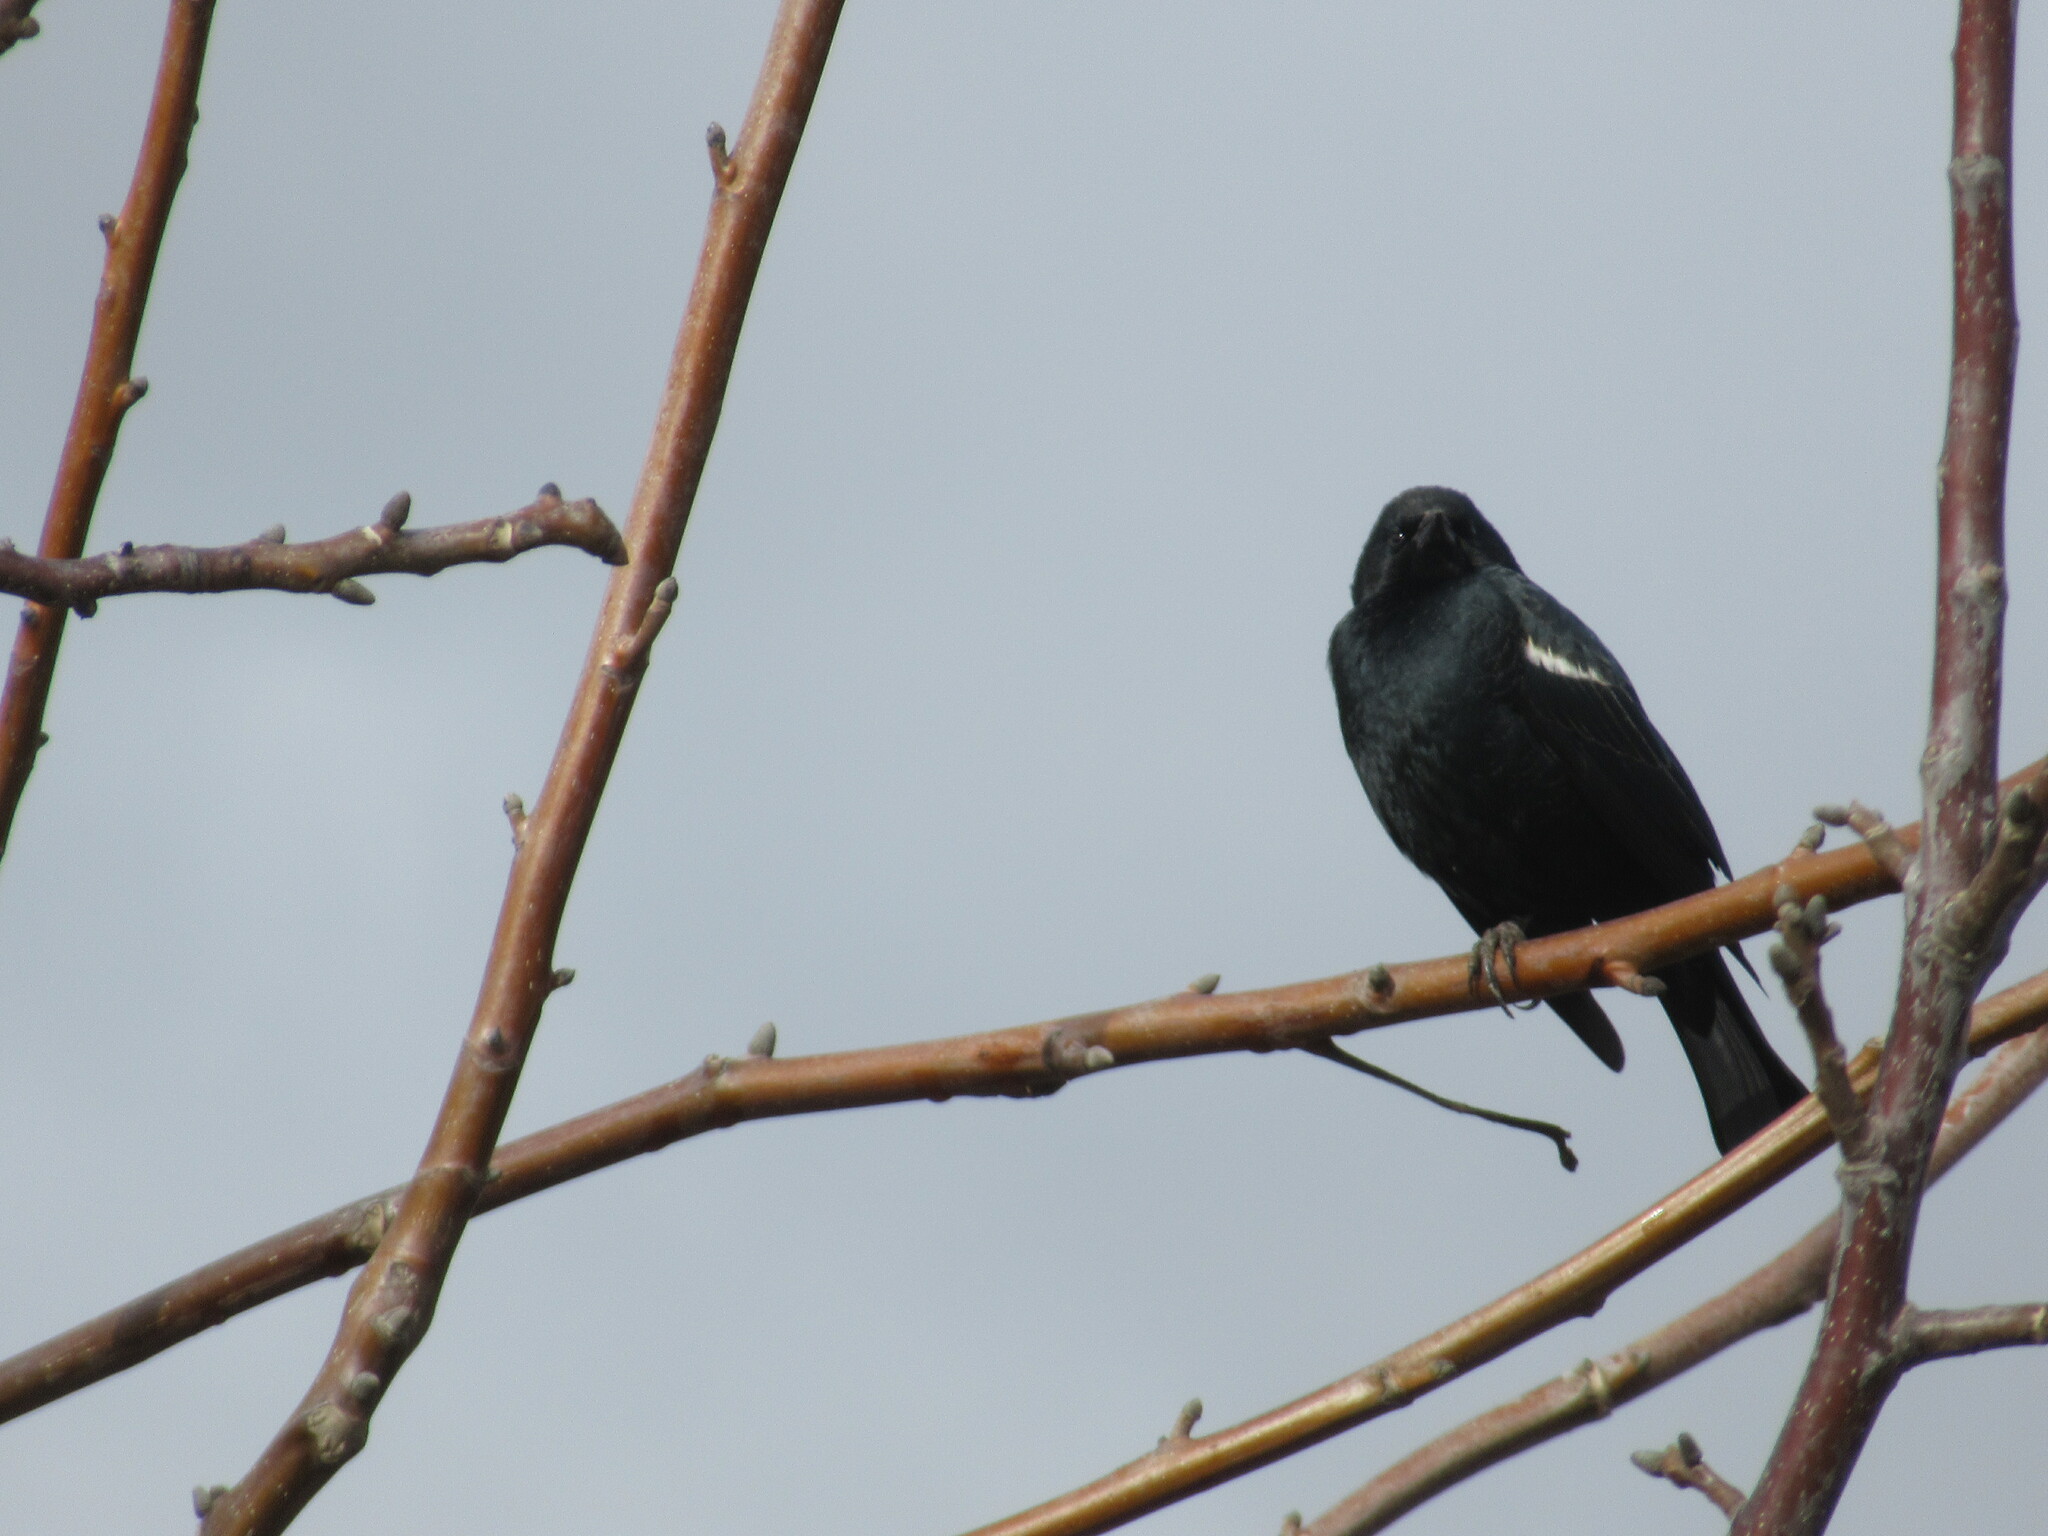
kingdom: Animalia
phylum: Chordata
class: Aves
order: Passeriformes
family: Icteridae
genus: Agelaius
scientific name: Agelaius tricolor
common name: Tricolored blackbird
